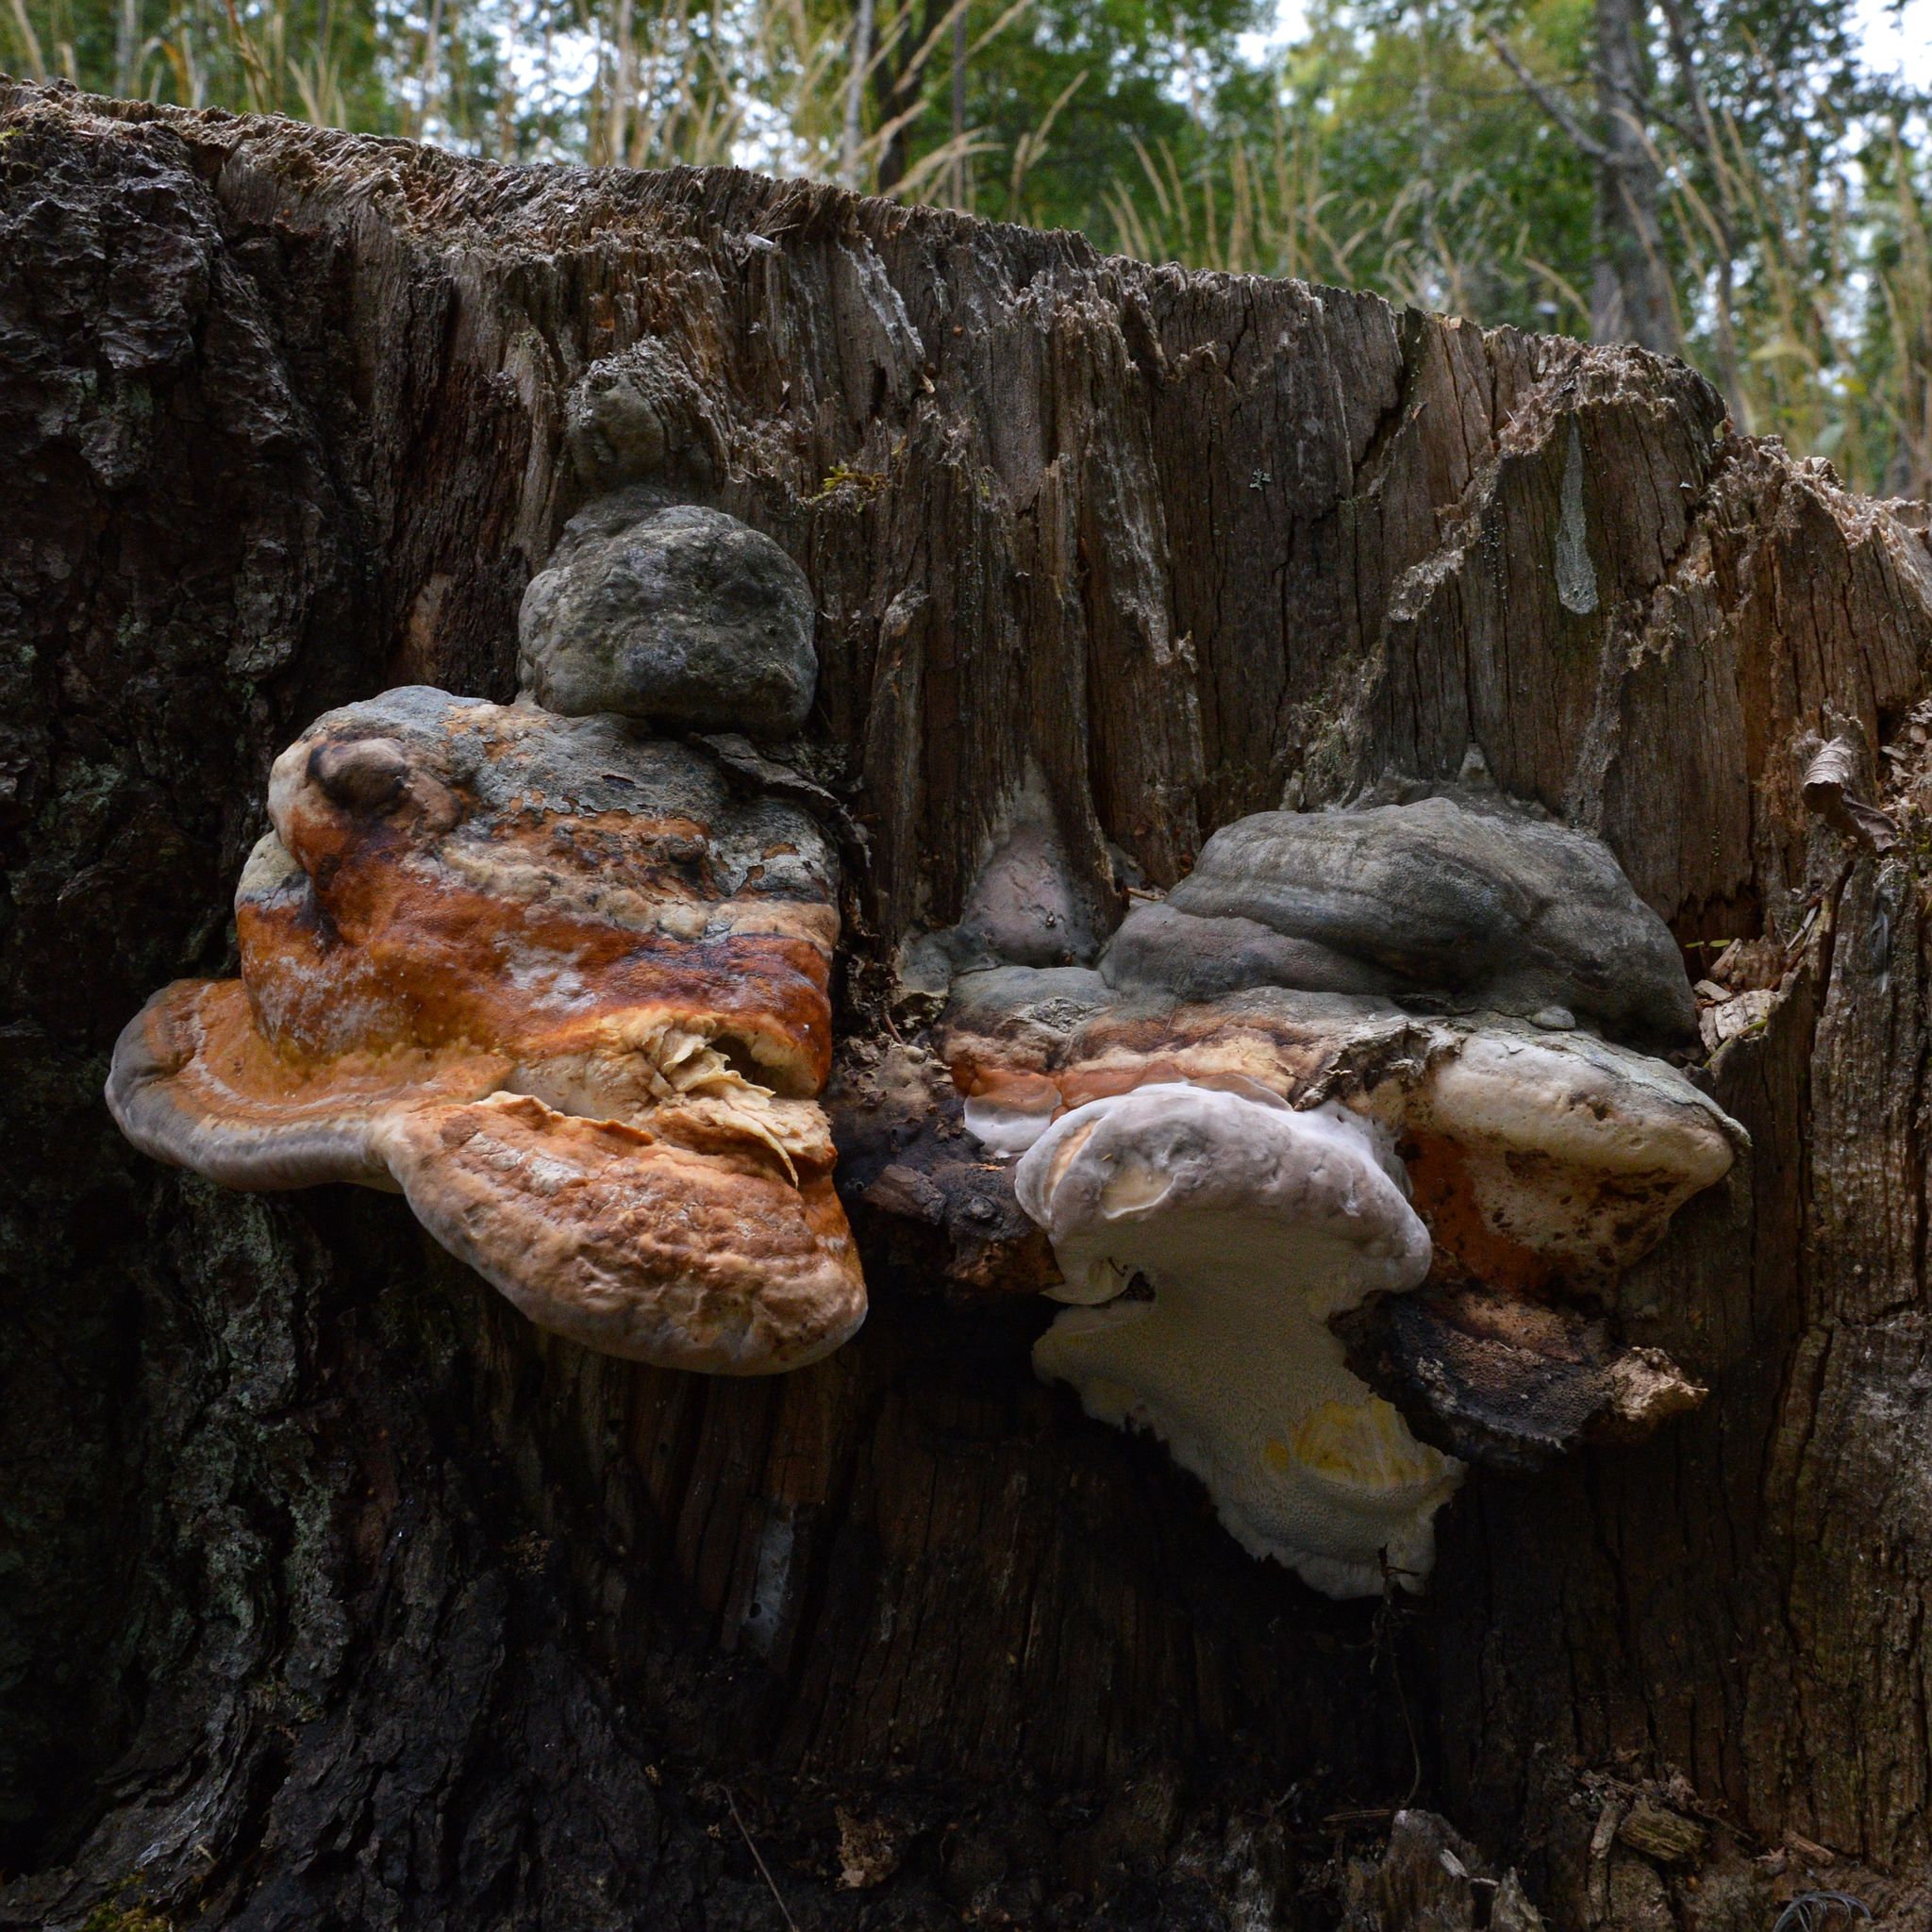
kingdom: Fungi
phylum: Basidiomycota
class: Agaricomycetes
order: Polyporales
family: Fomitopsidaceae
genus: Fomitopsis
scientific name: Fomitopsis pinicola
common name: Red-belted bracket
